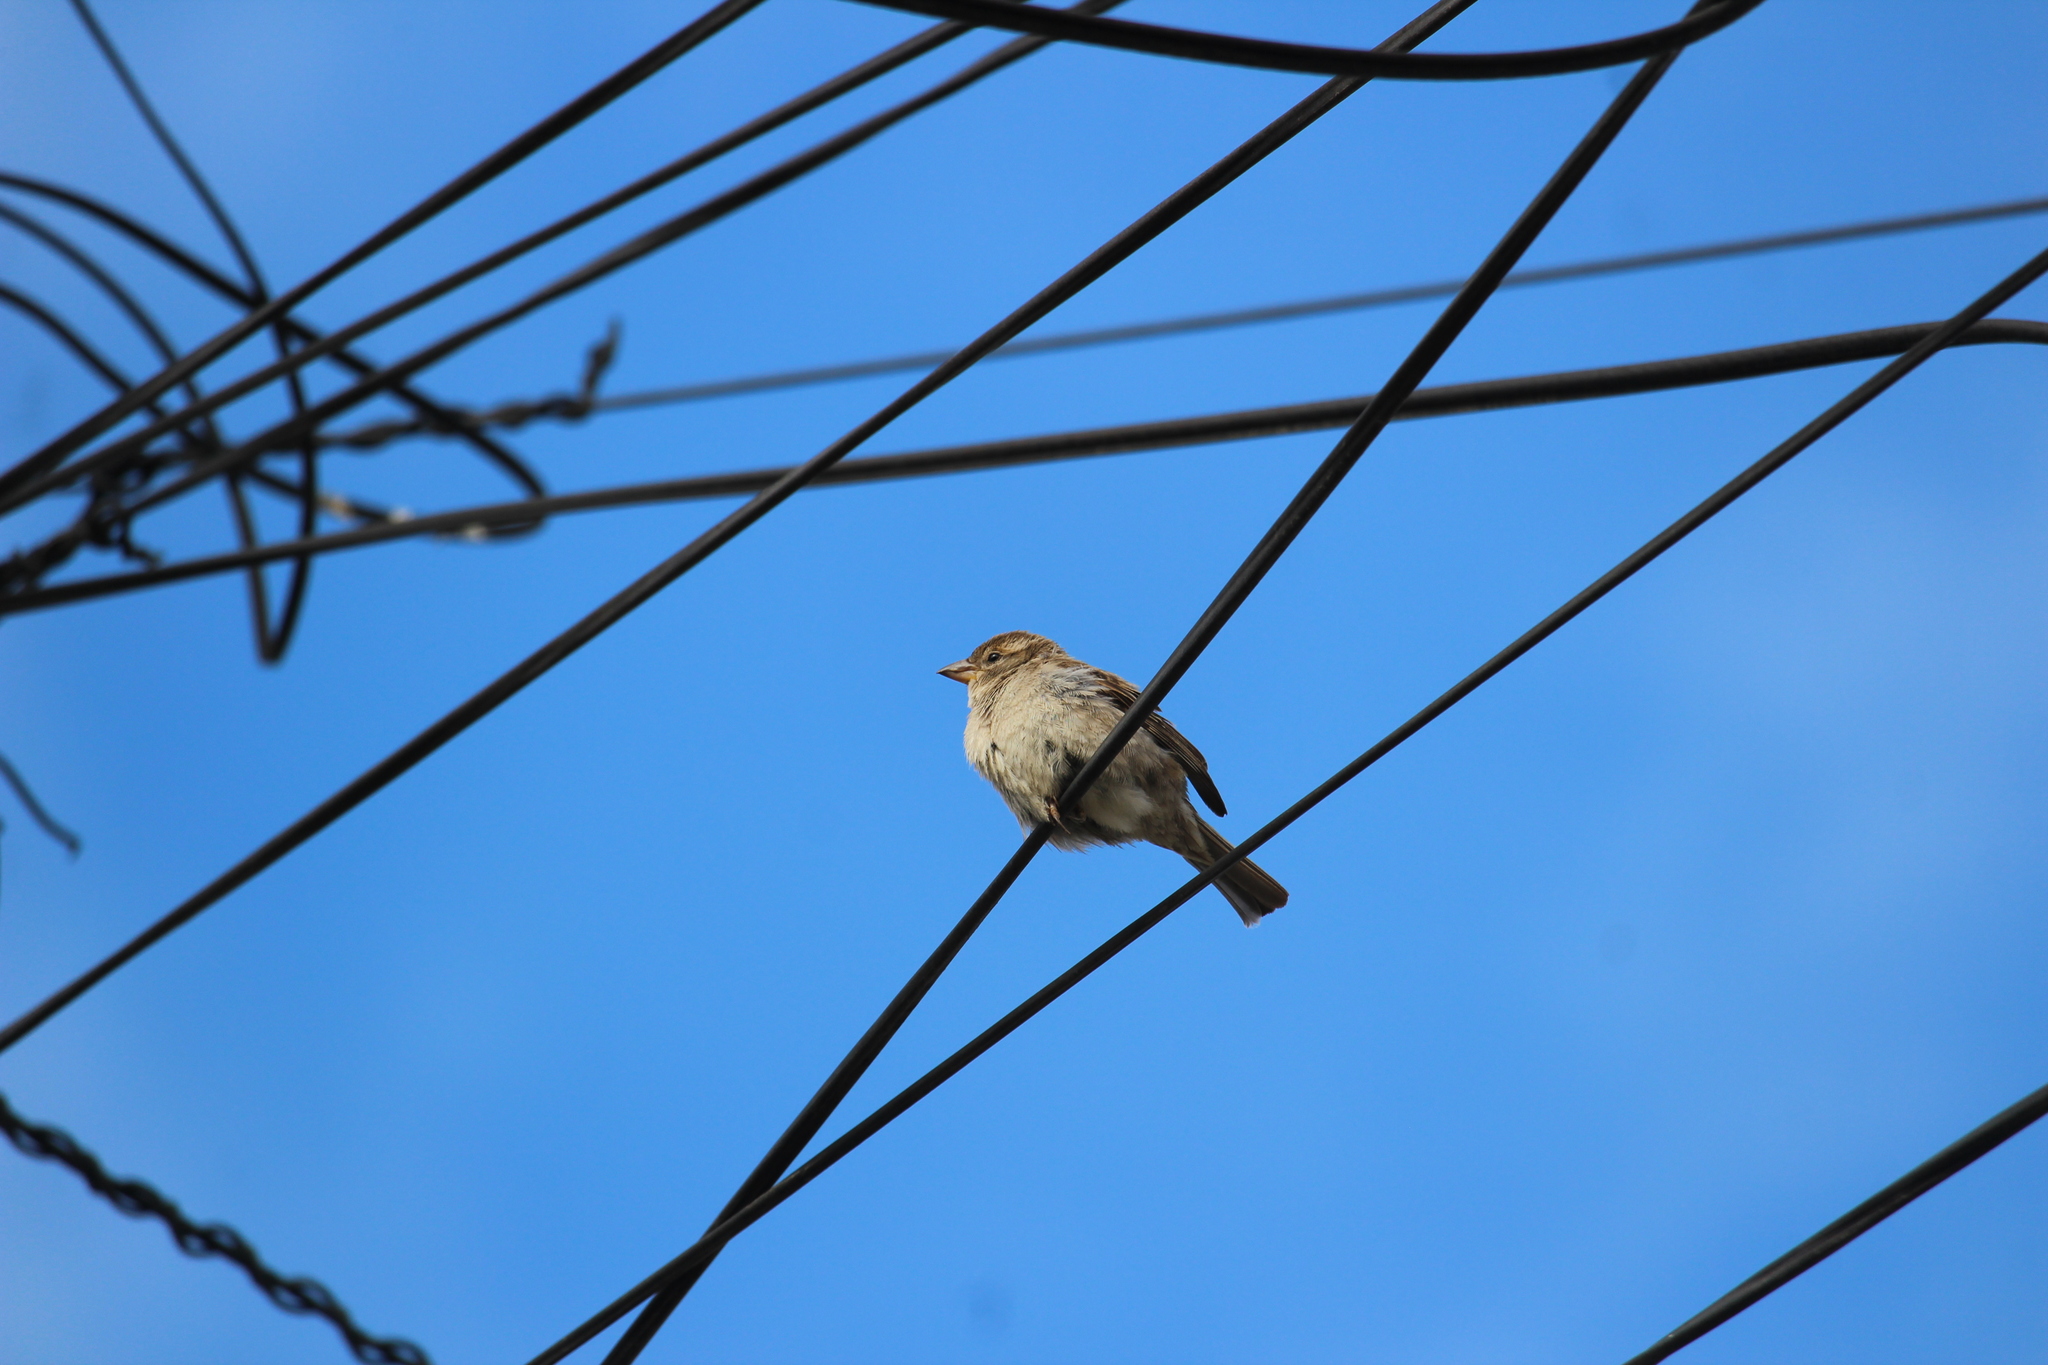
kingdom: Animalia
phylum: Chordata
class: Aves
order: Passeriformes
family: Passeridae
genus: Passer
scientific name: Passer domesticus
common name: House sparrow
